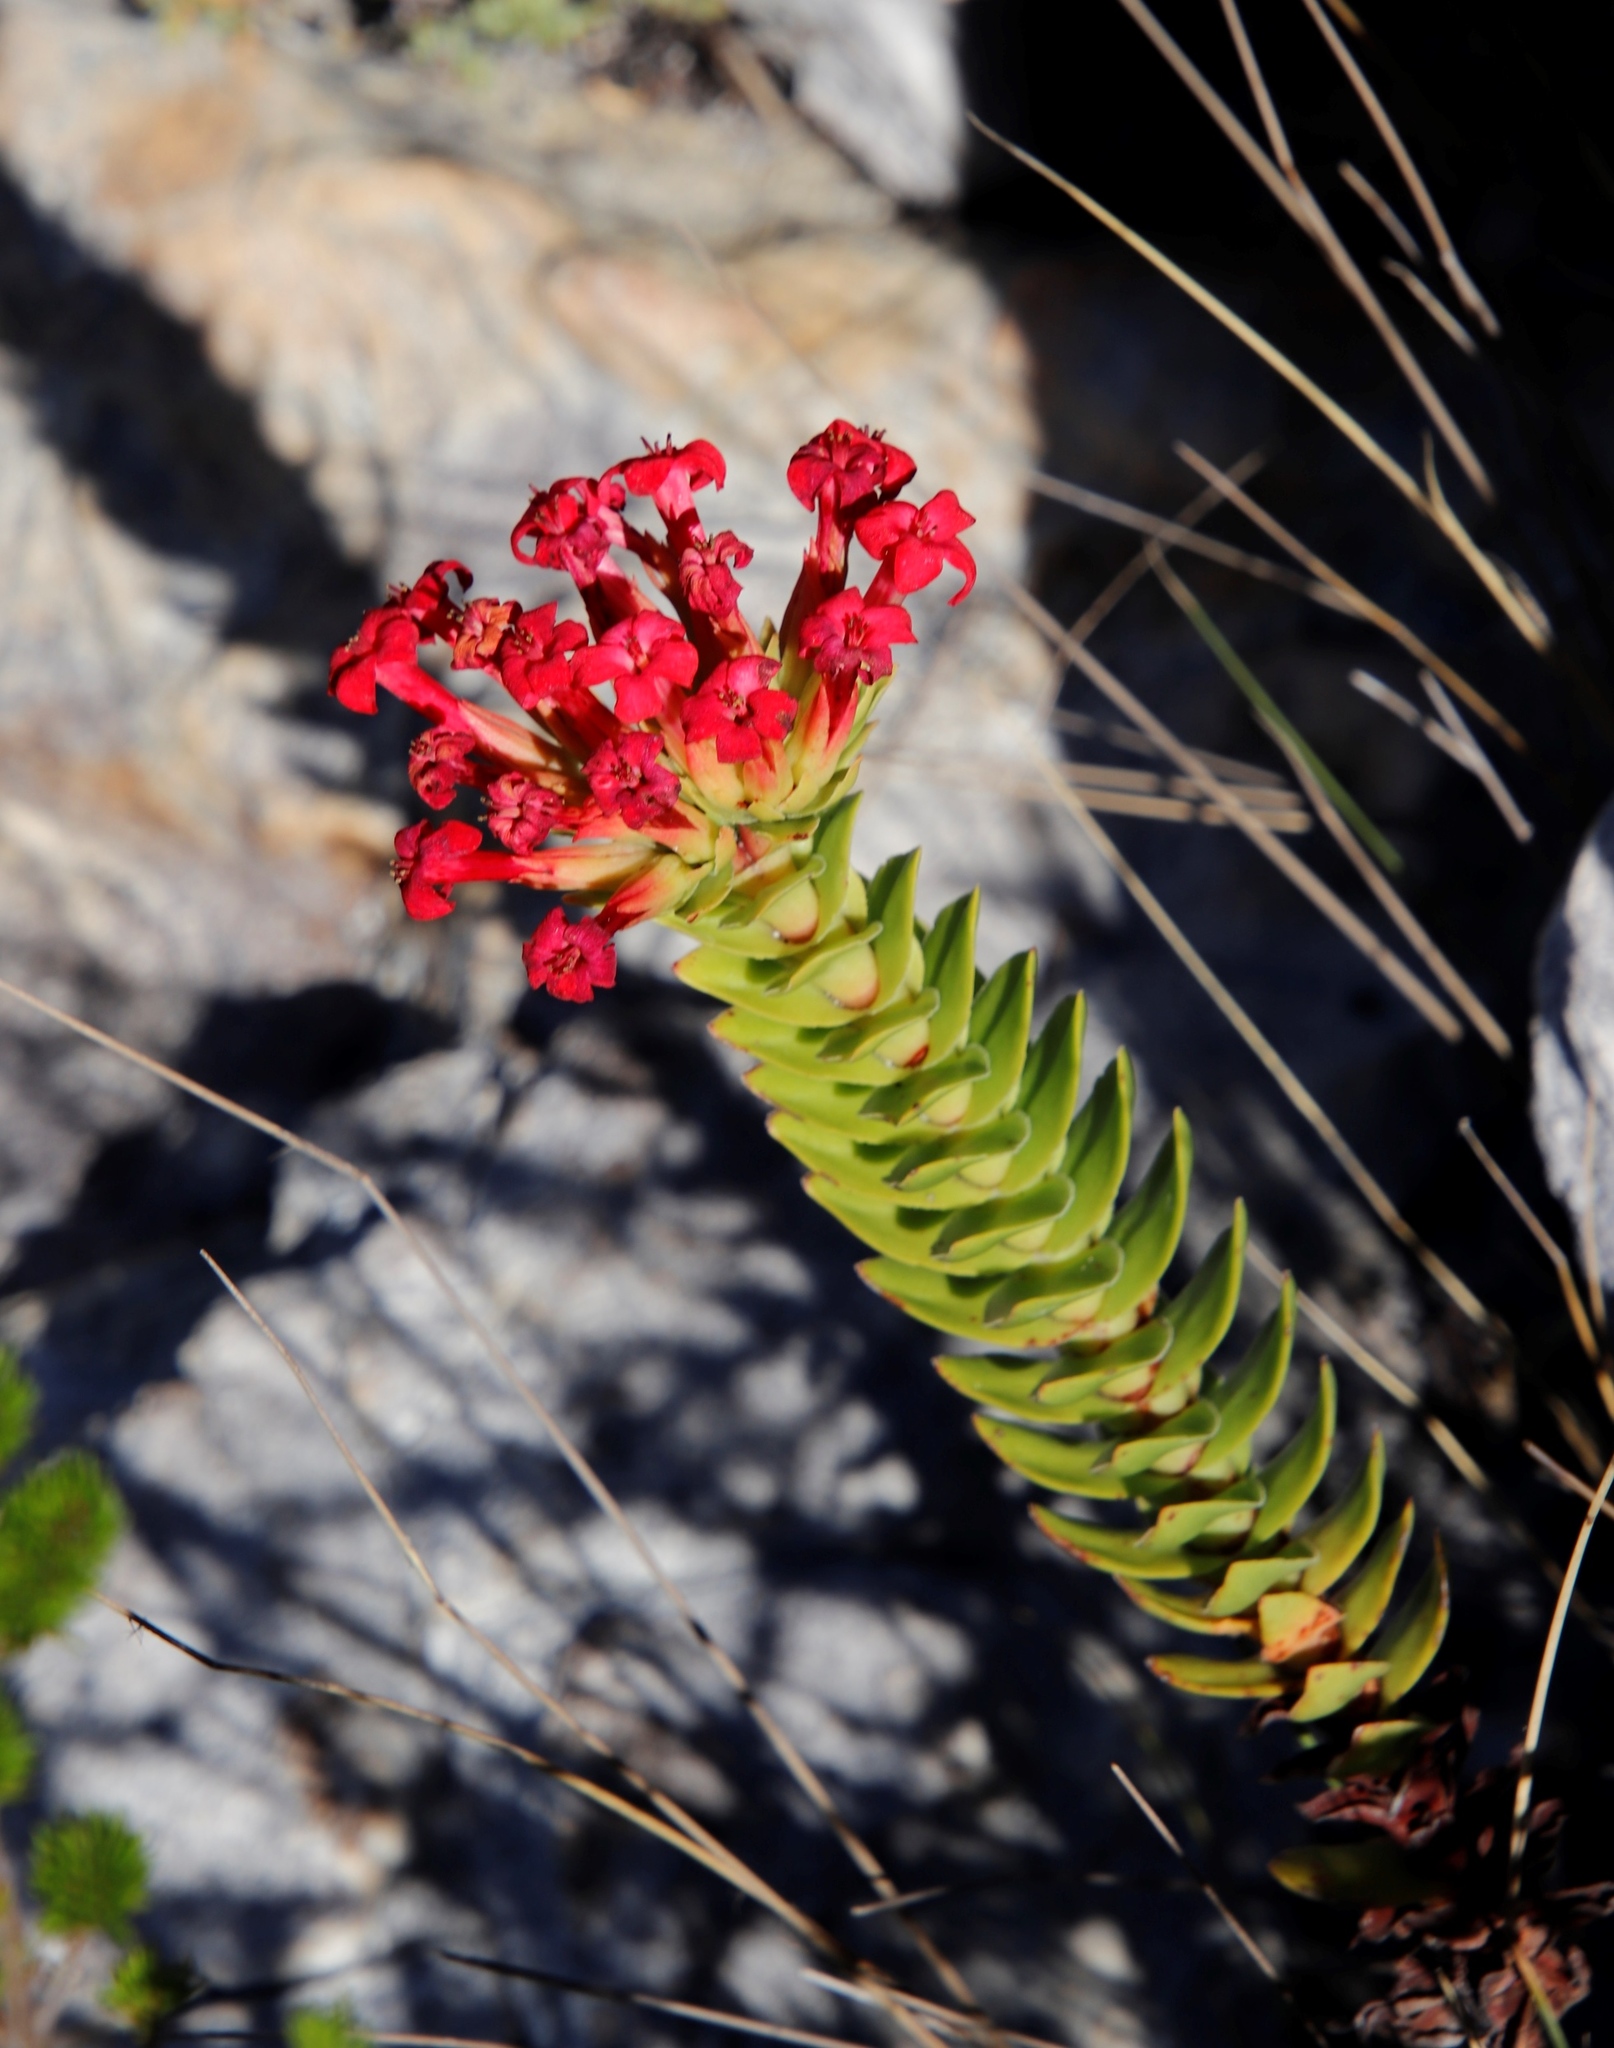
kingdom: Plantae
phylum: Tracheophyta
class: Magnoliopsida
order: Saxifragales
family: Crassulaceae
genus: Crassula
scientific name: Crassula coccinea
